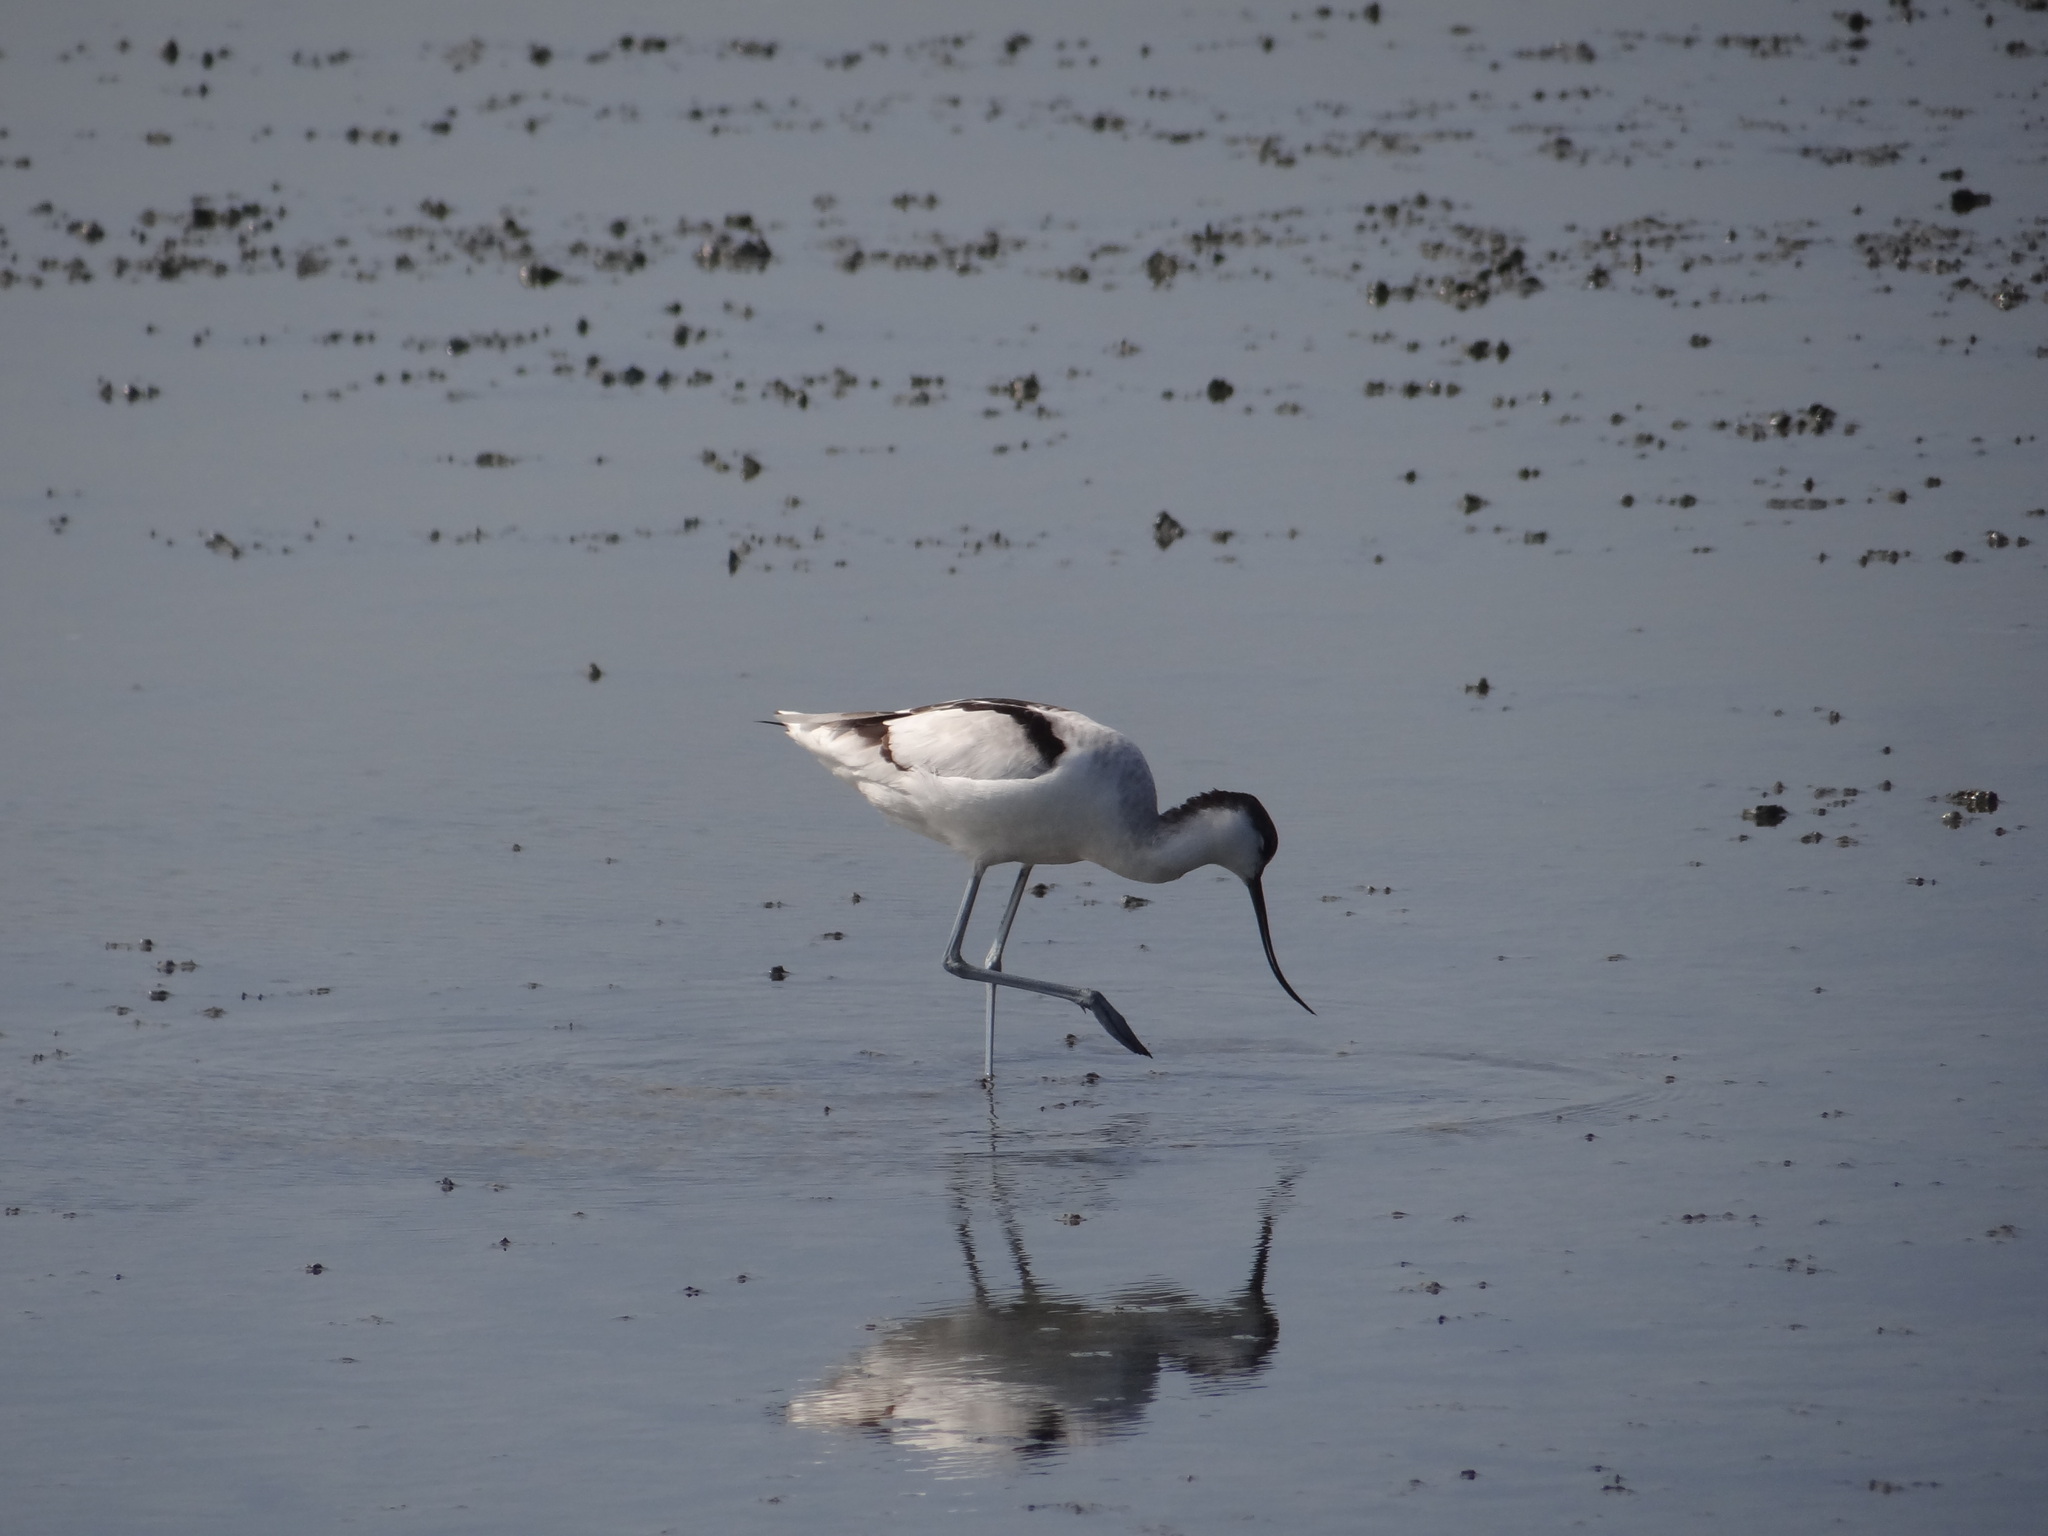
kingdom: Animalia
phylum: Chordata
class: Aves
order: Charadriiformes
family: Recurvirostridae
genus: Recurvirostra
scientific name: Recurvirostra avosetta
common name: Pied avocet
